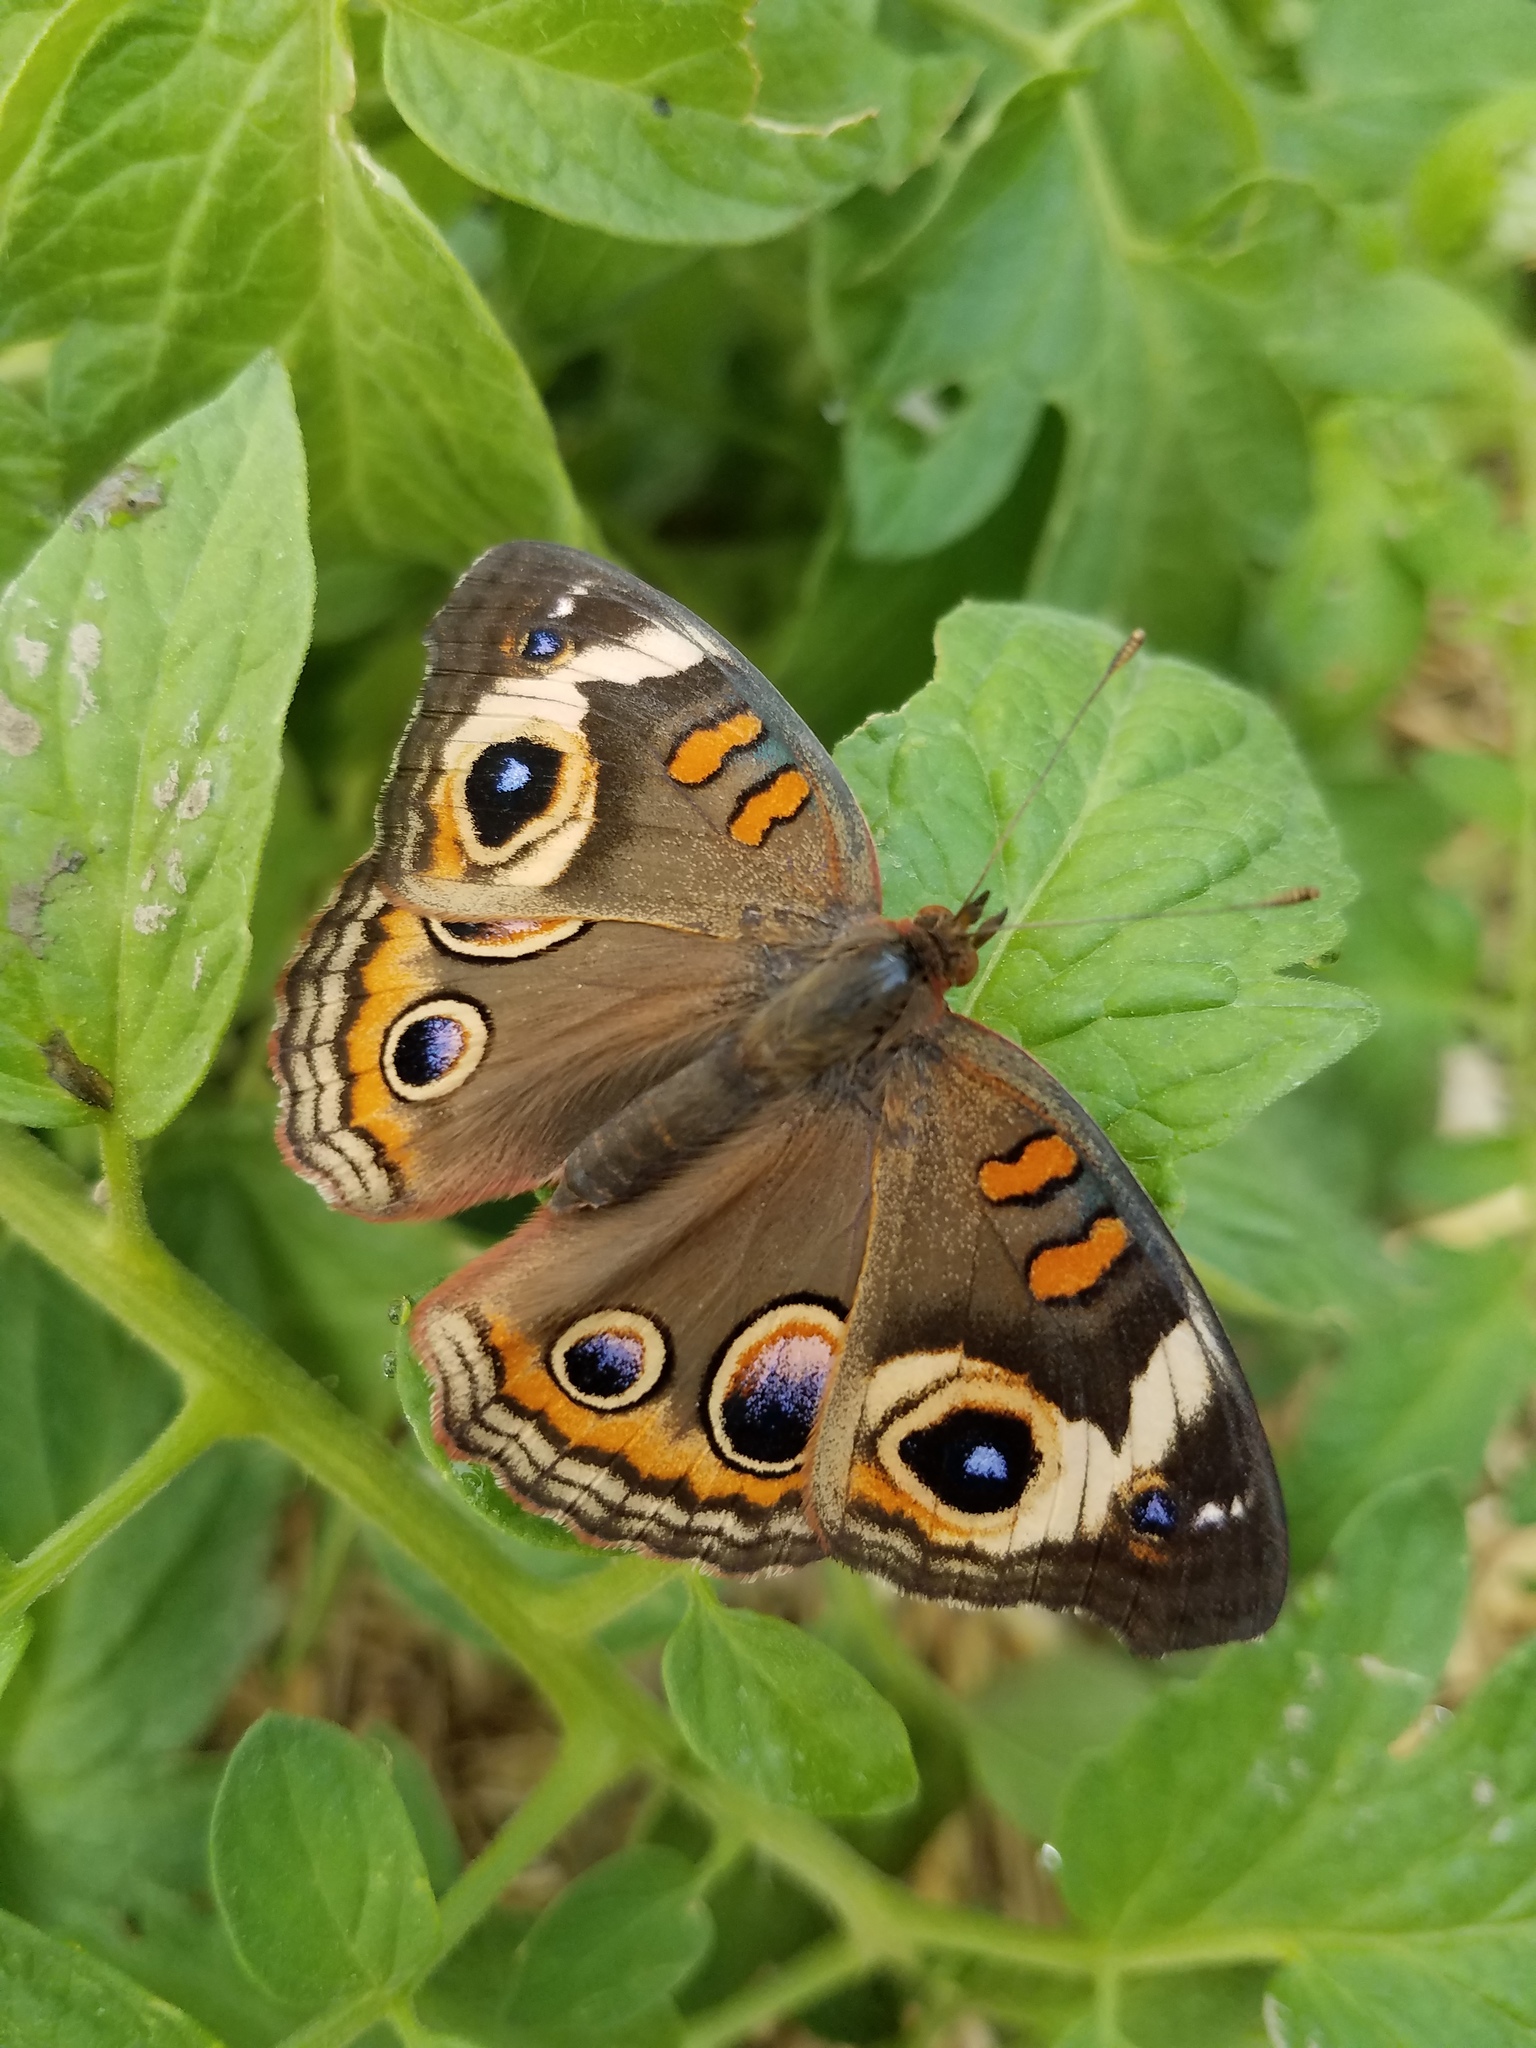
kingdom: Animalia
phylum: Arthropoda
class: Insecta
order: Lepidoptera
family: Nymphalidae
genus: Junonia
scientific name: Junonia coenia
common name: Common buckeye
